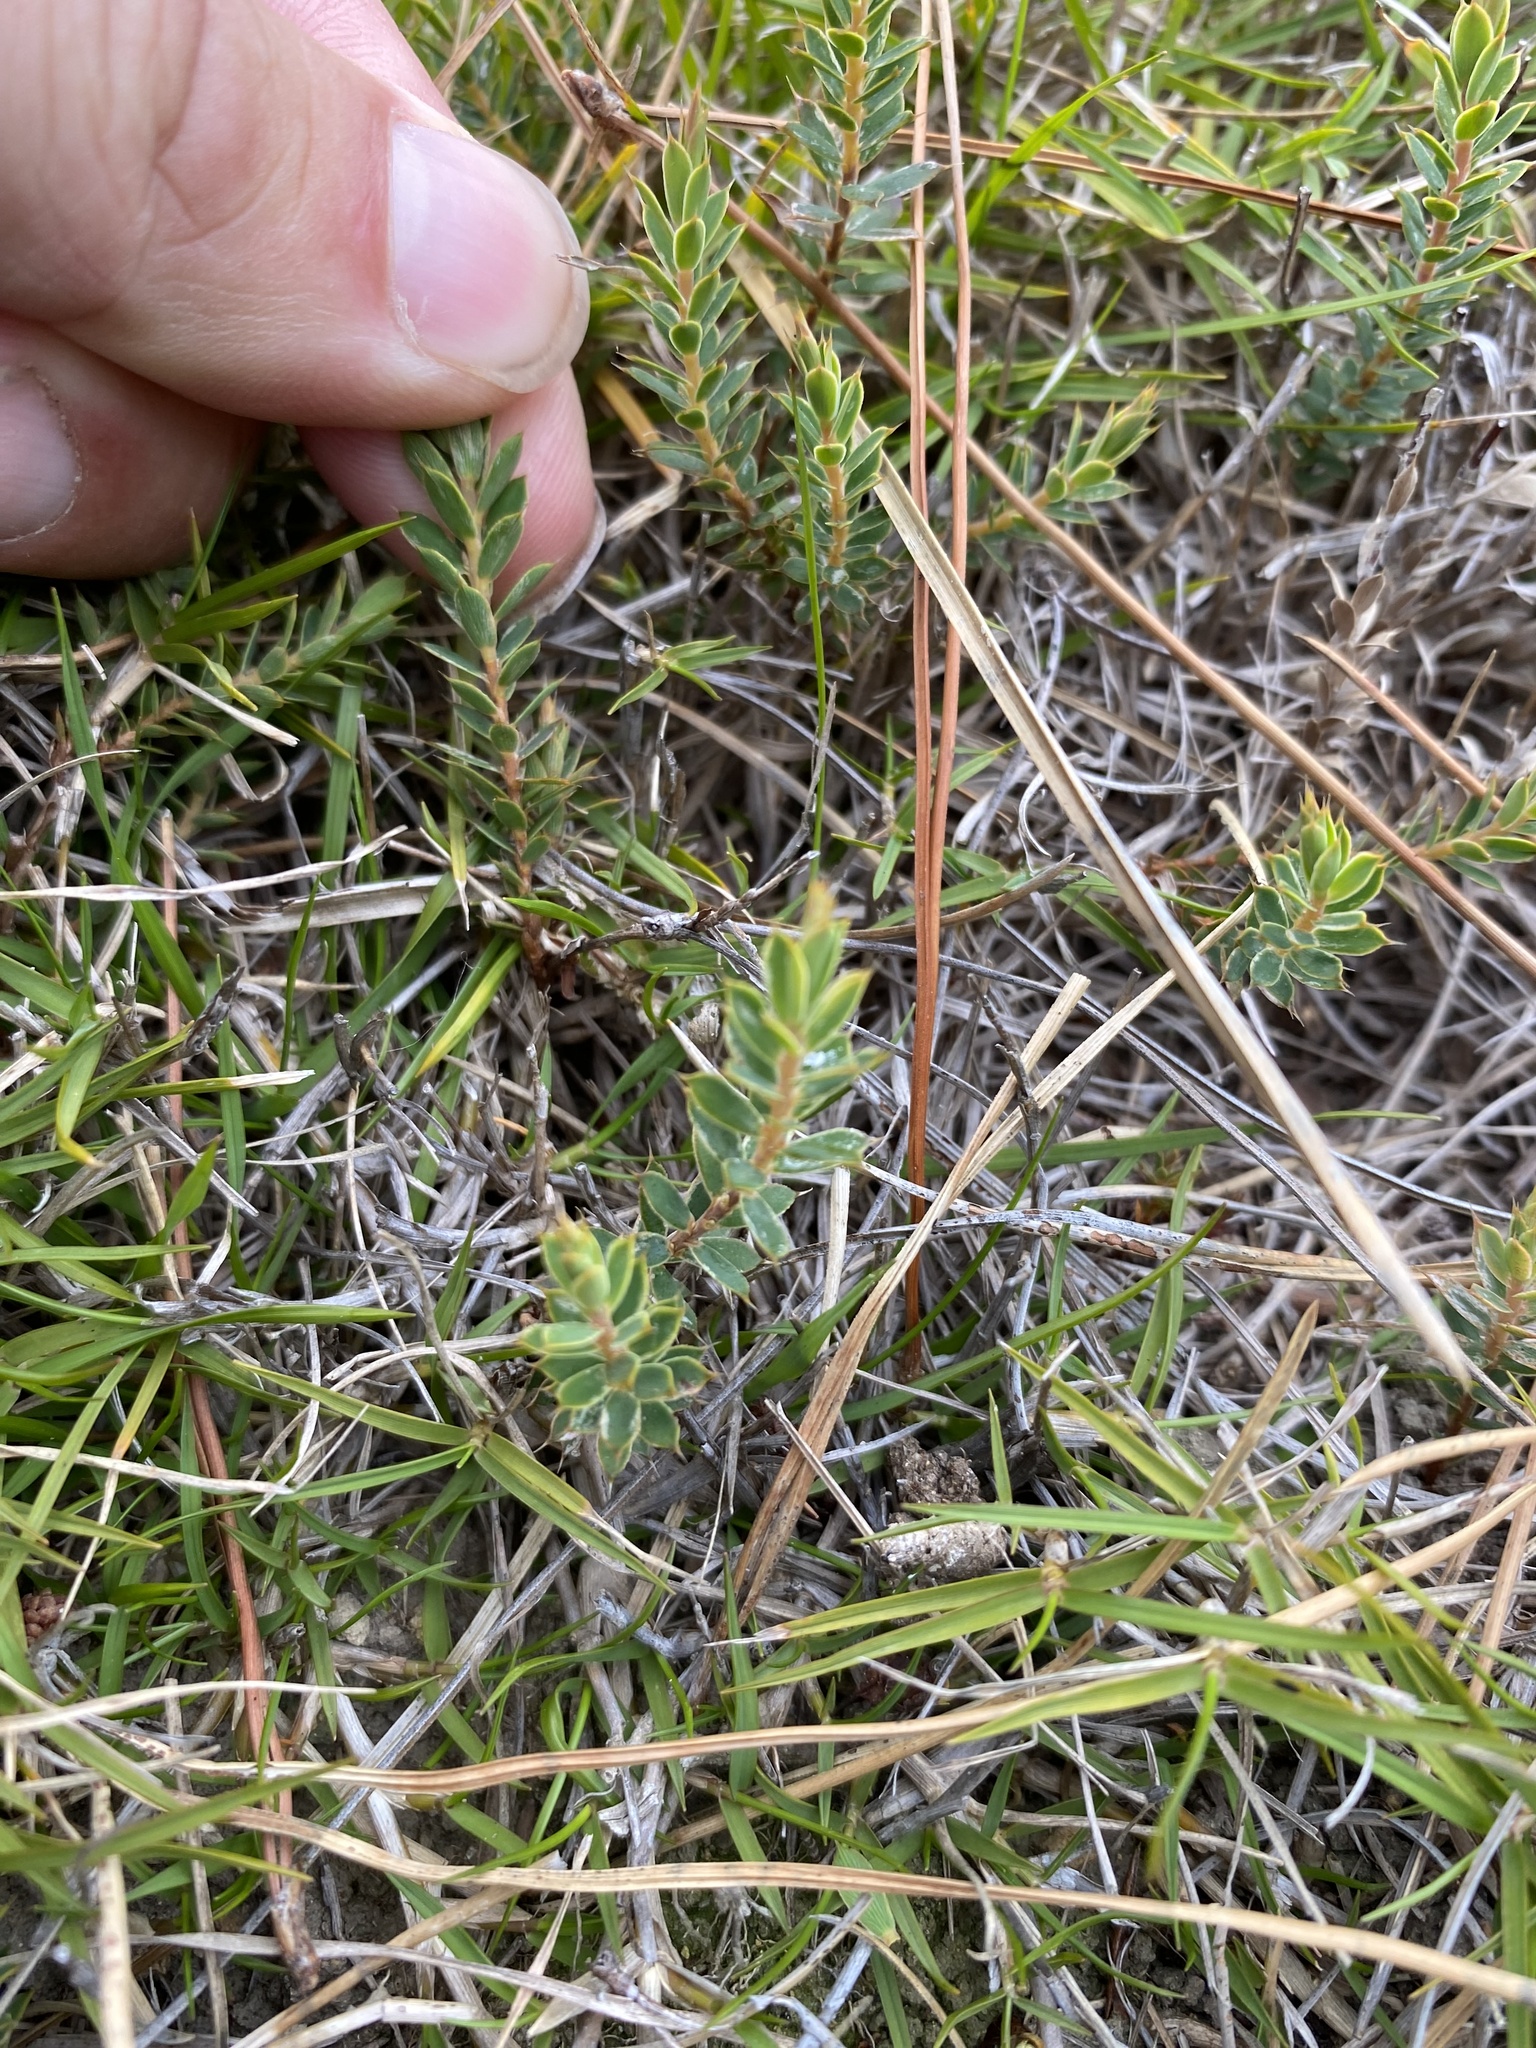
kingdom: Plantae
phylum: Tracheophyta
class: Magnoliopsida
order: Ericales
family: Ericaceae
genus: Styphelia
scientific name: Styphelia nesophila
